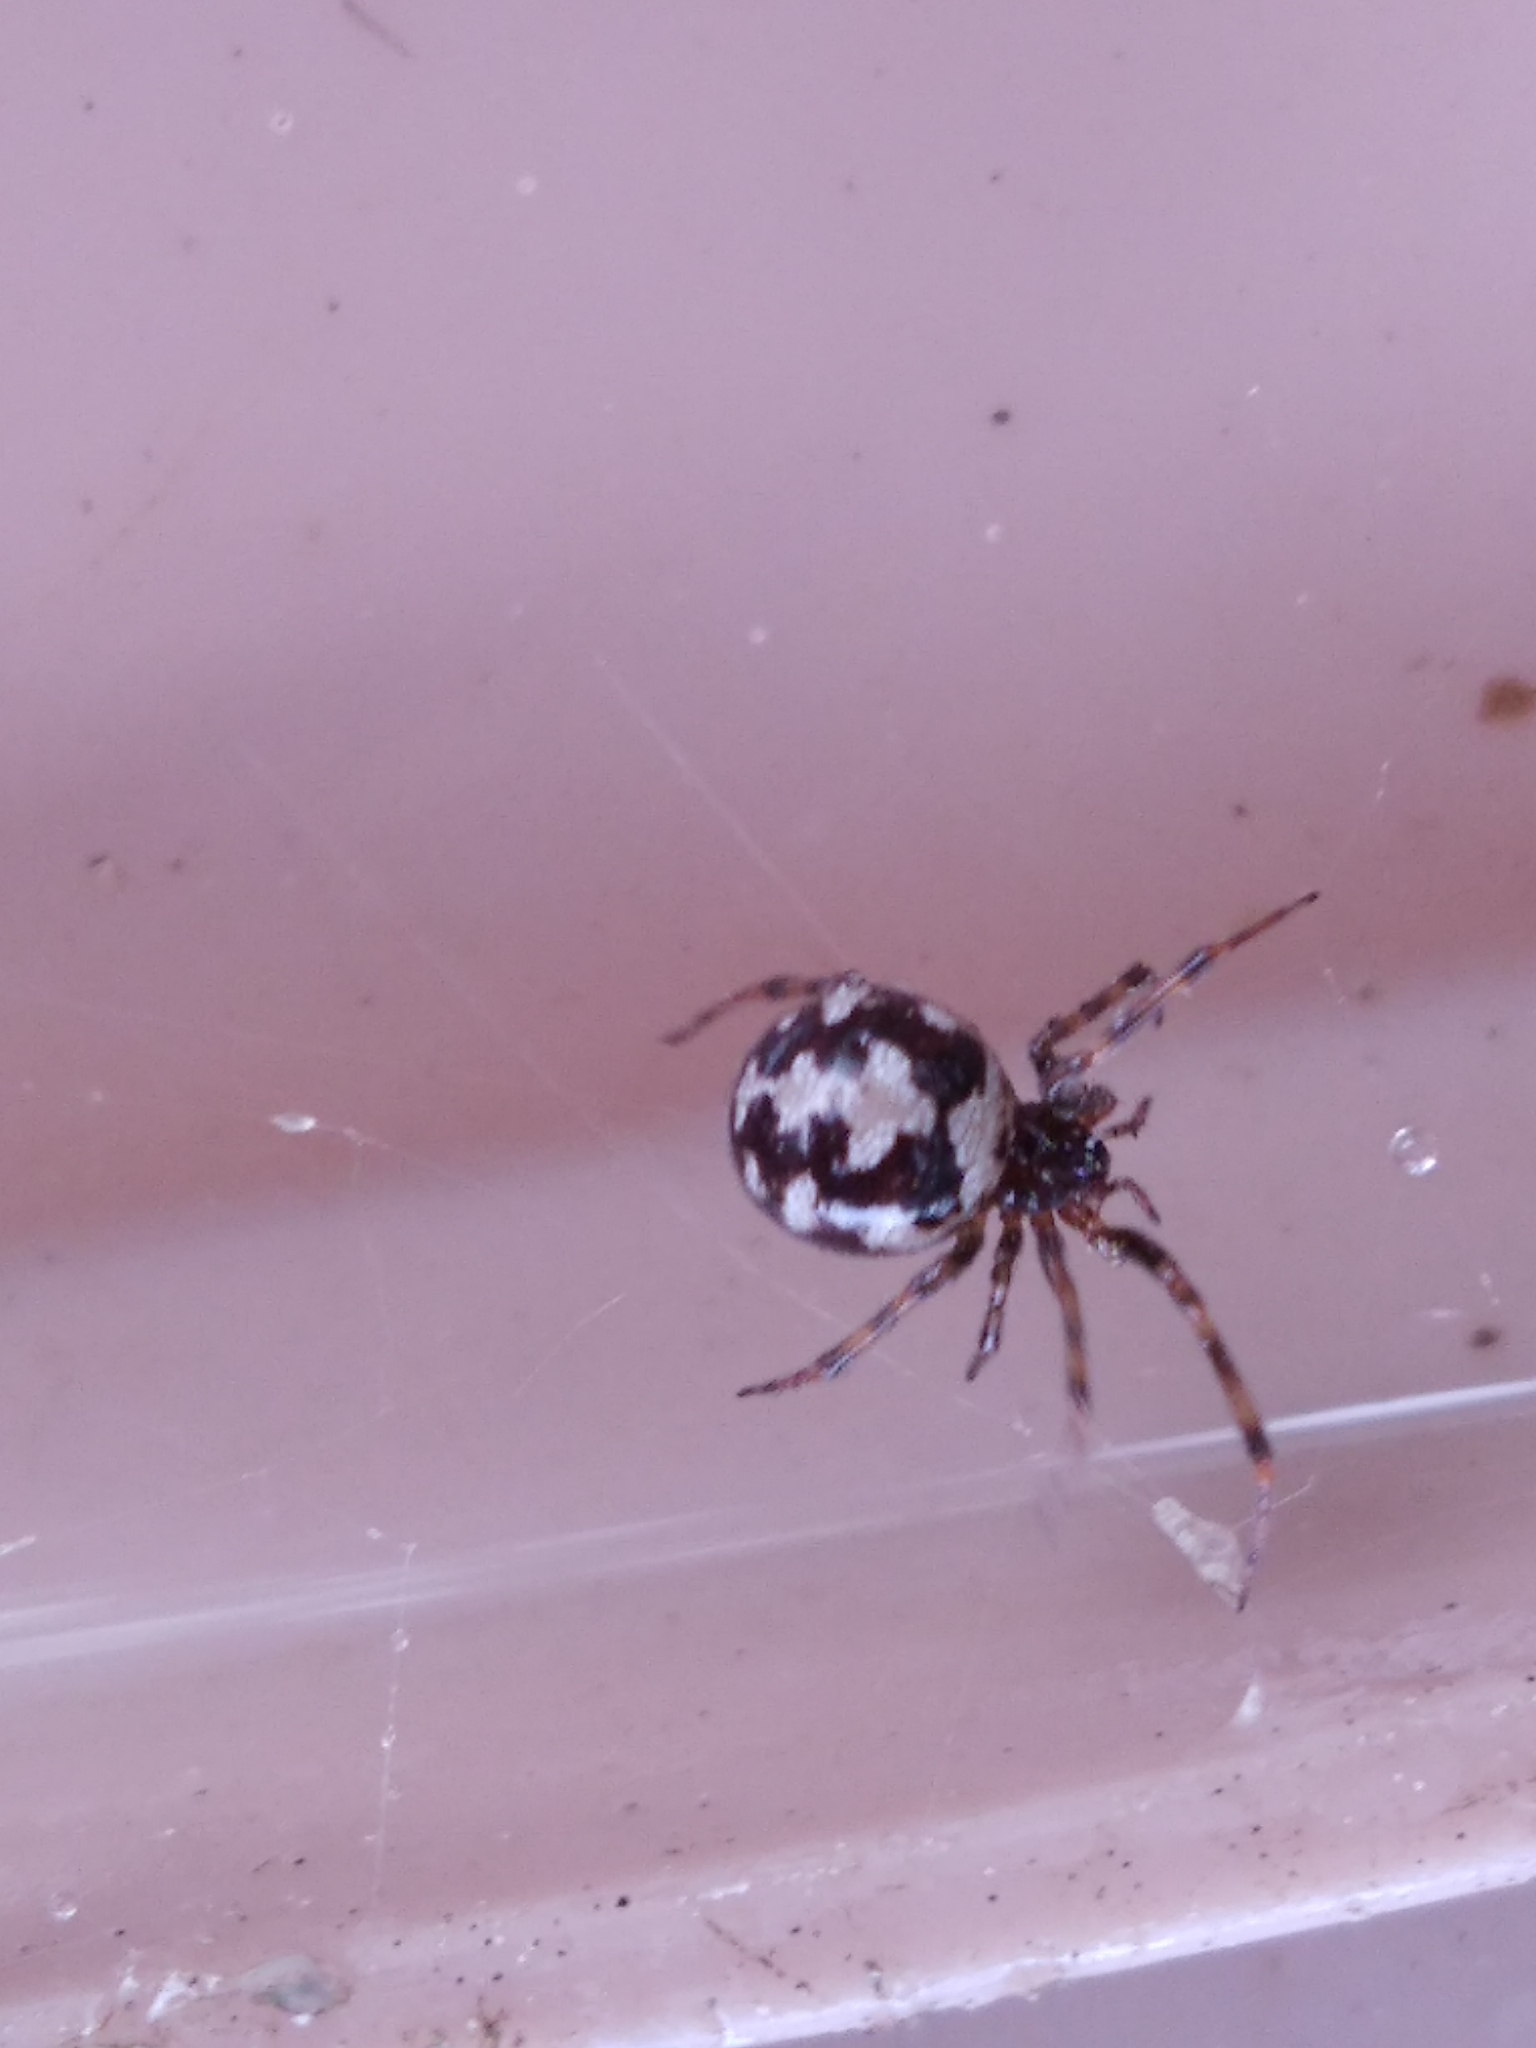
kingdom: Animalia
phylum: Arthropoda
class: Arachnida
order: Araneae
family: Theridiidae
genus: Steatoda
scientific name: Steatoda triangulosa
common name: Triangulate bud spider
